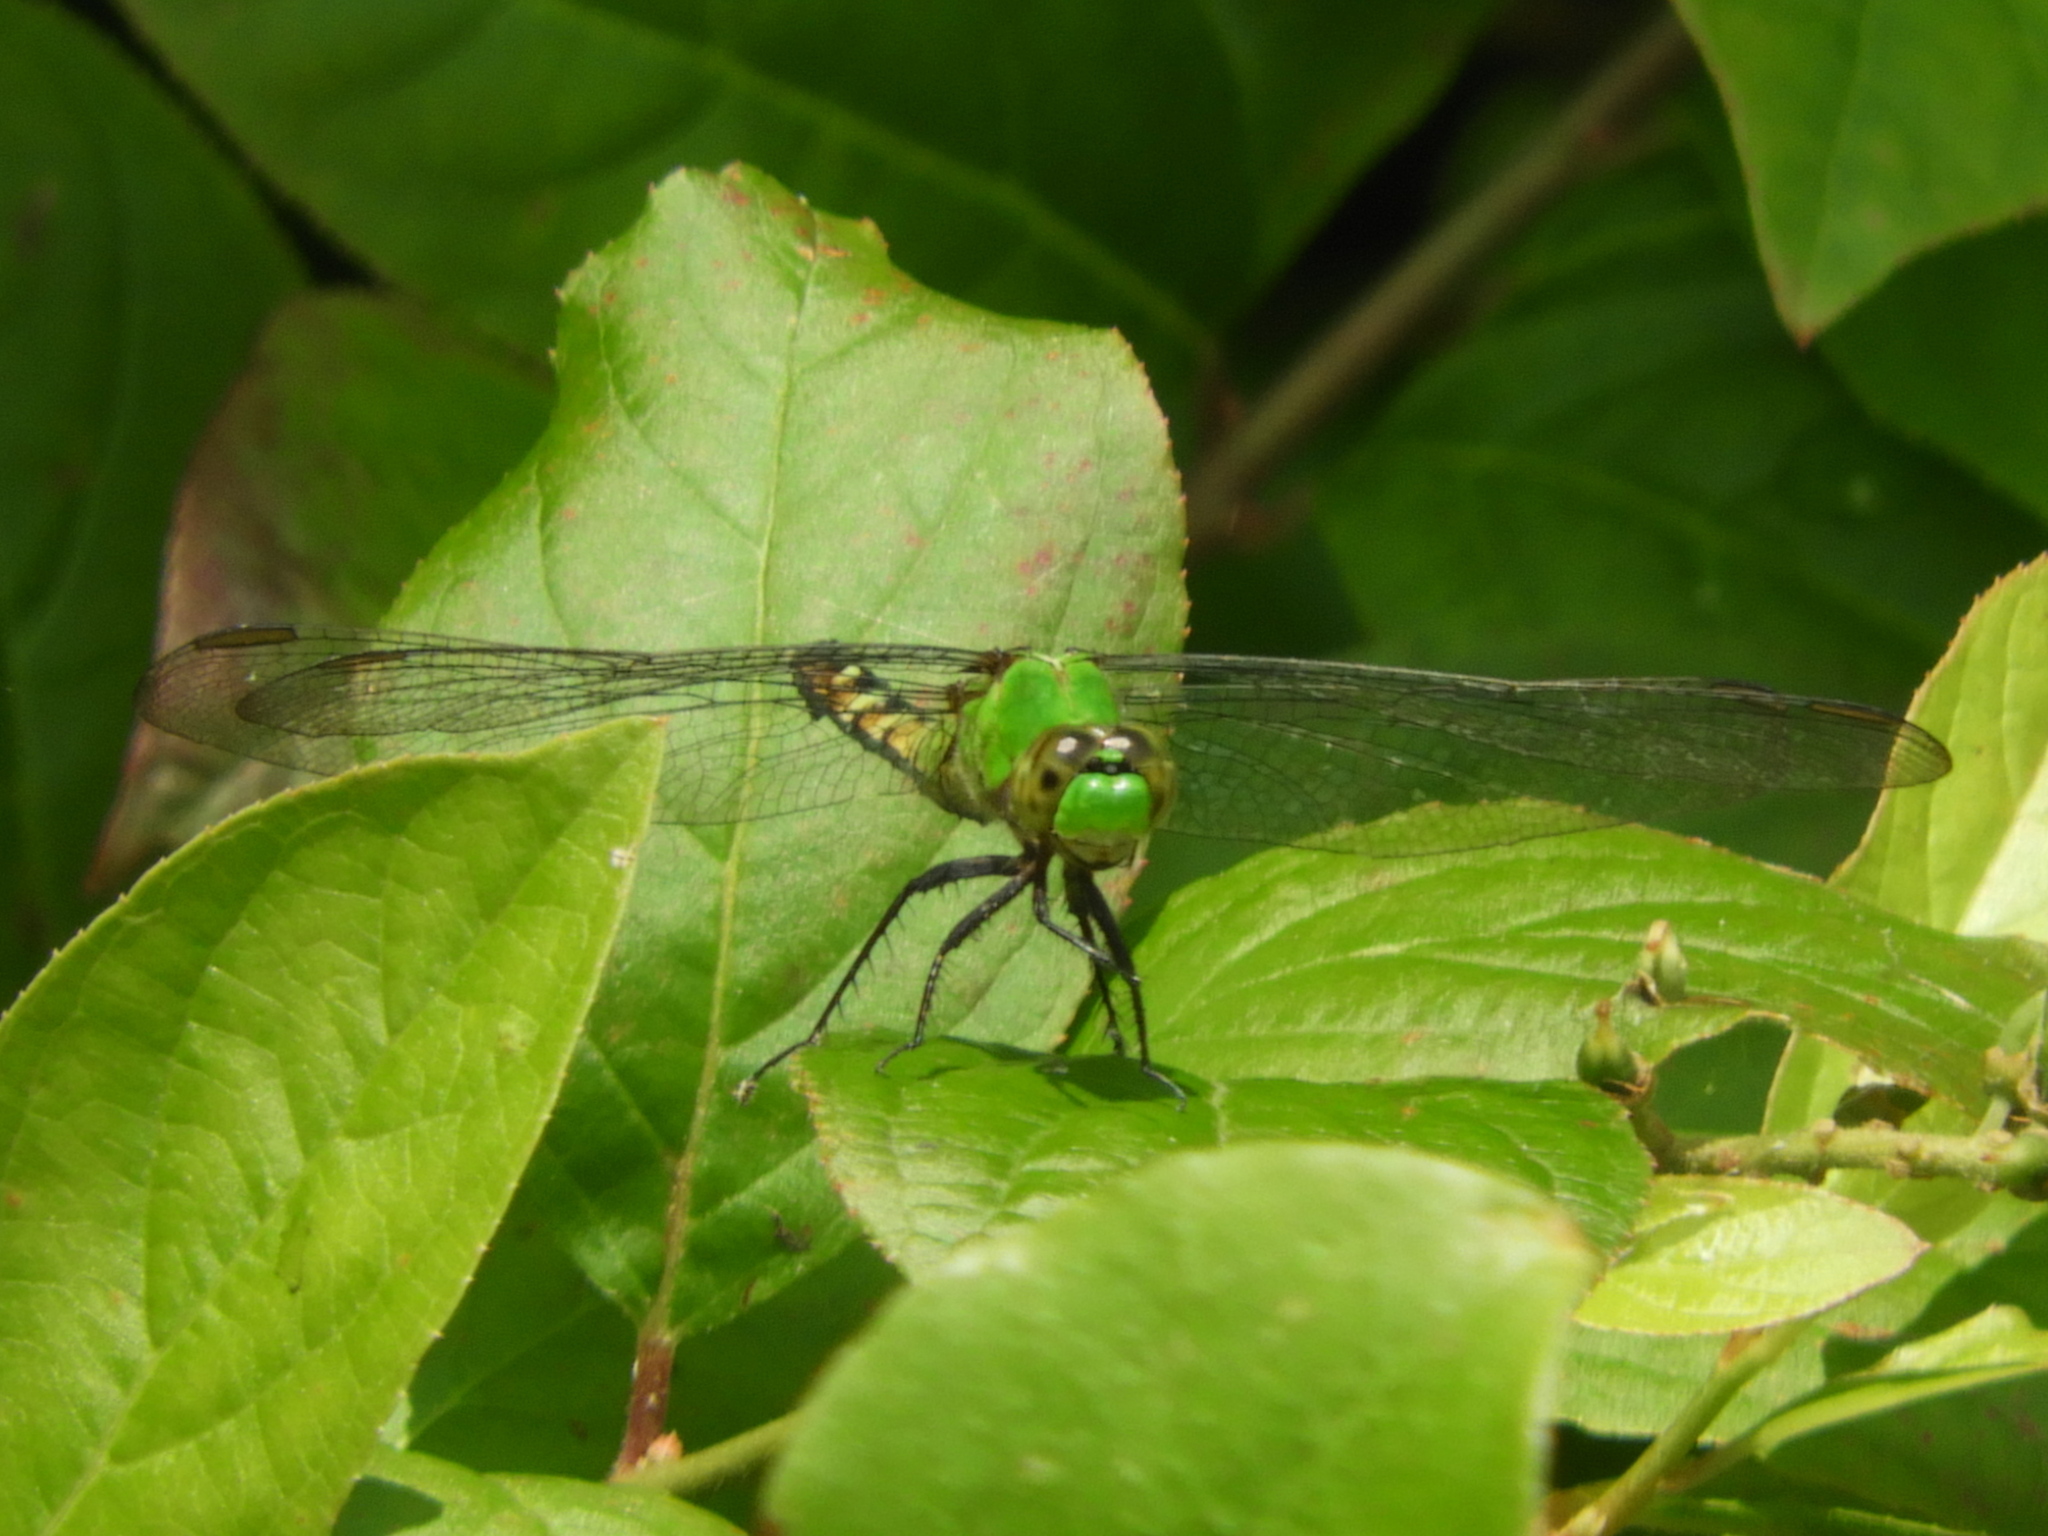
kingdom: Animalia
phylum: Arthropoda
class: Insecta
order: Odonata
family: Libellulidae
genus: Erythemis
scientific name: Erythemis simplicicollis
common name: Eastern pondhawk
